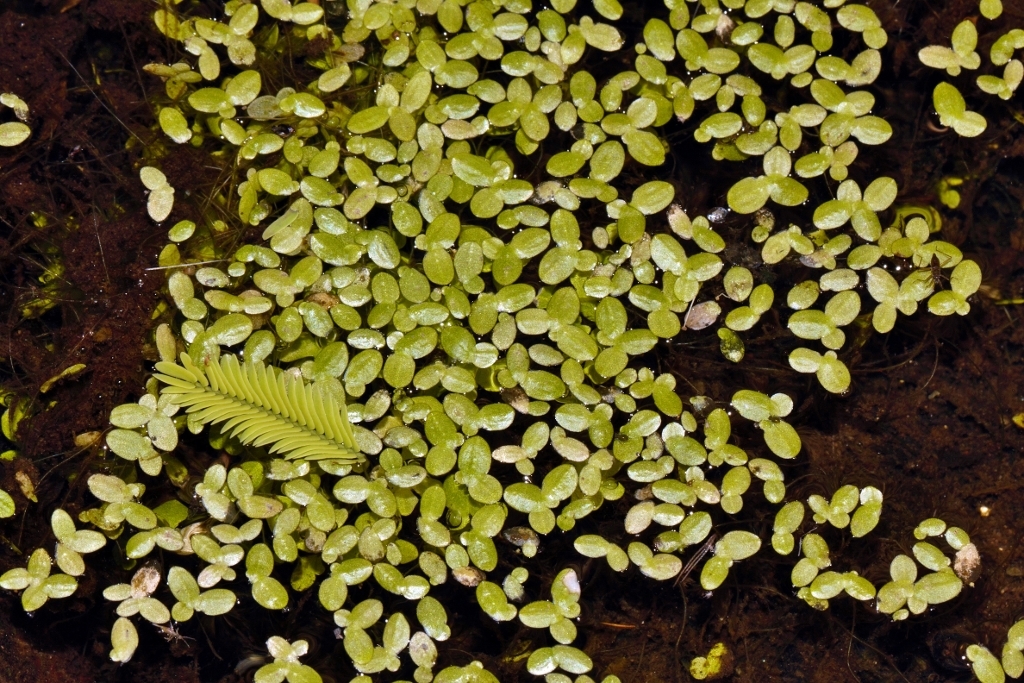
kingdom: Plantae
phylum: Tracheophyta
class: Liliopsida
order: Alismatales
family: Araceae
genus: Lemna
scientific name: Lemna aequinoctialis
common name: Duckweed
